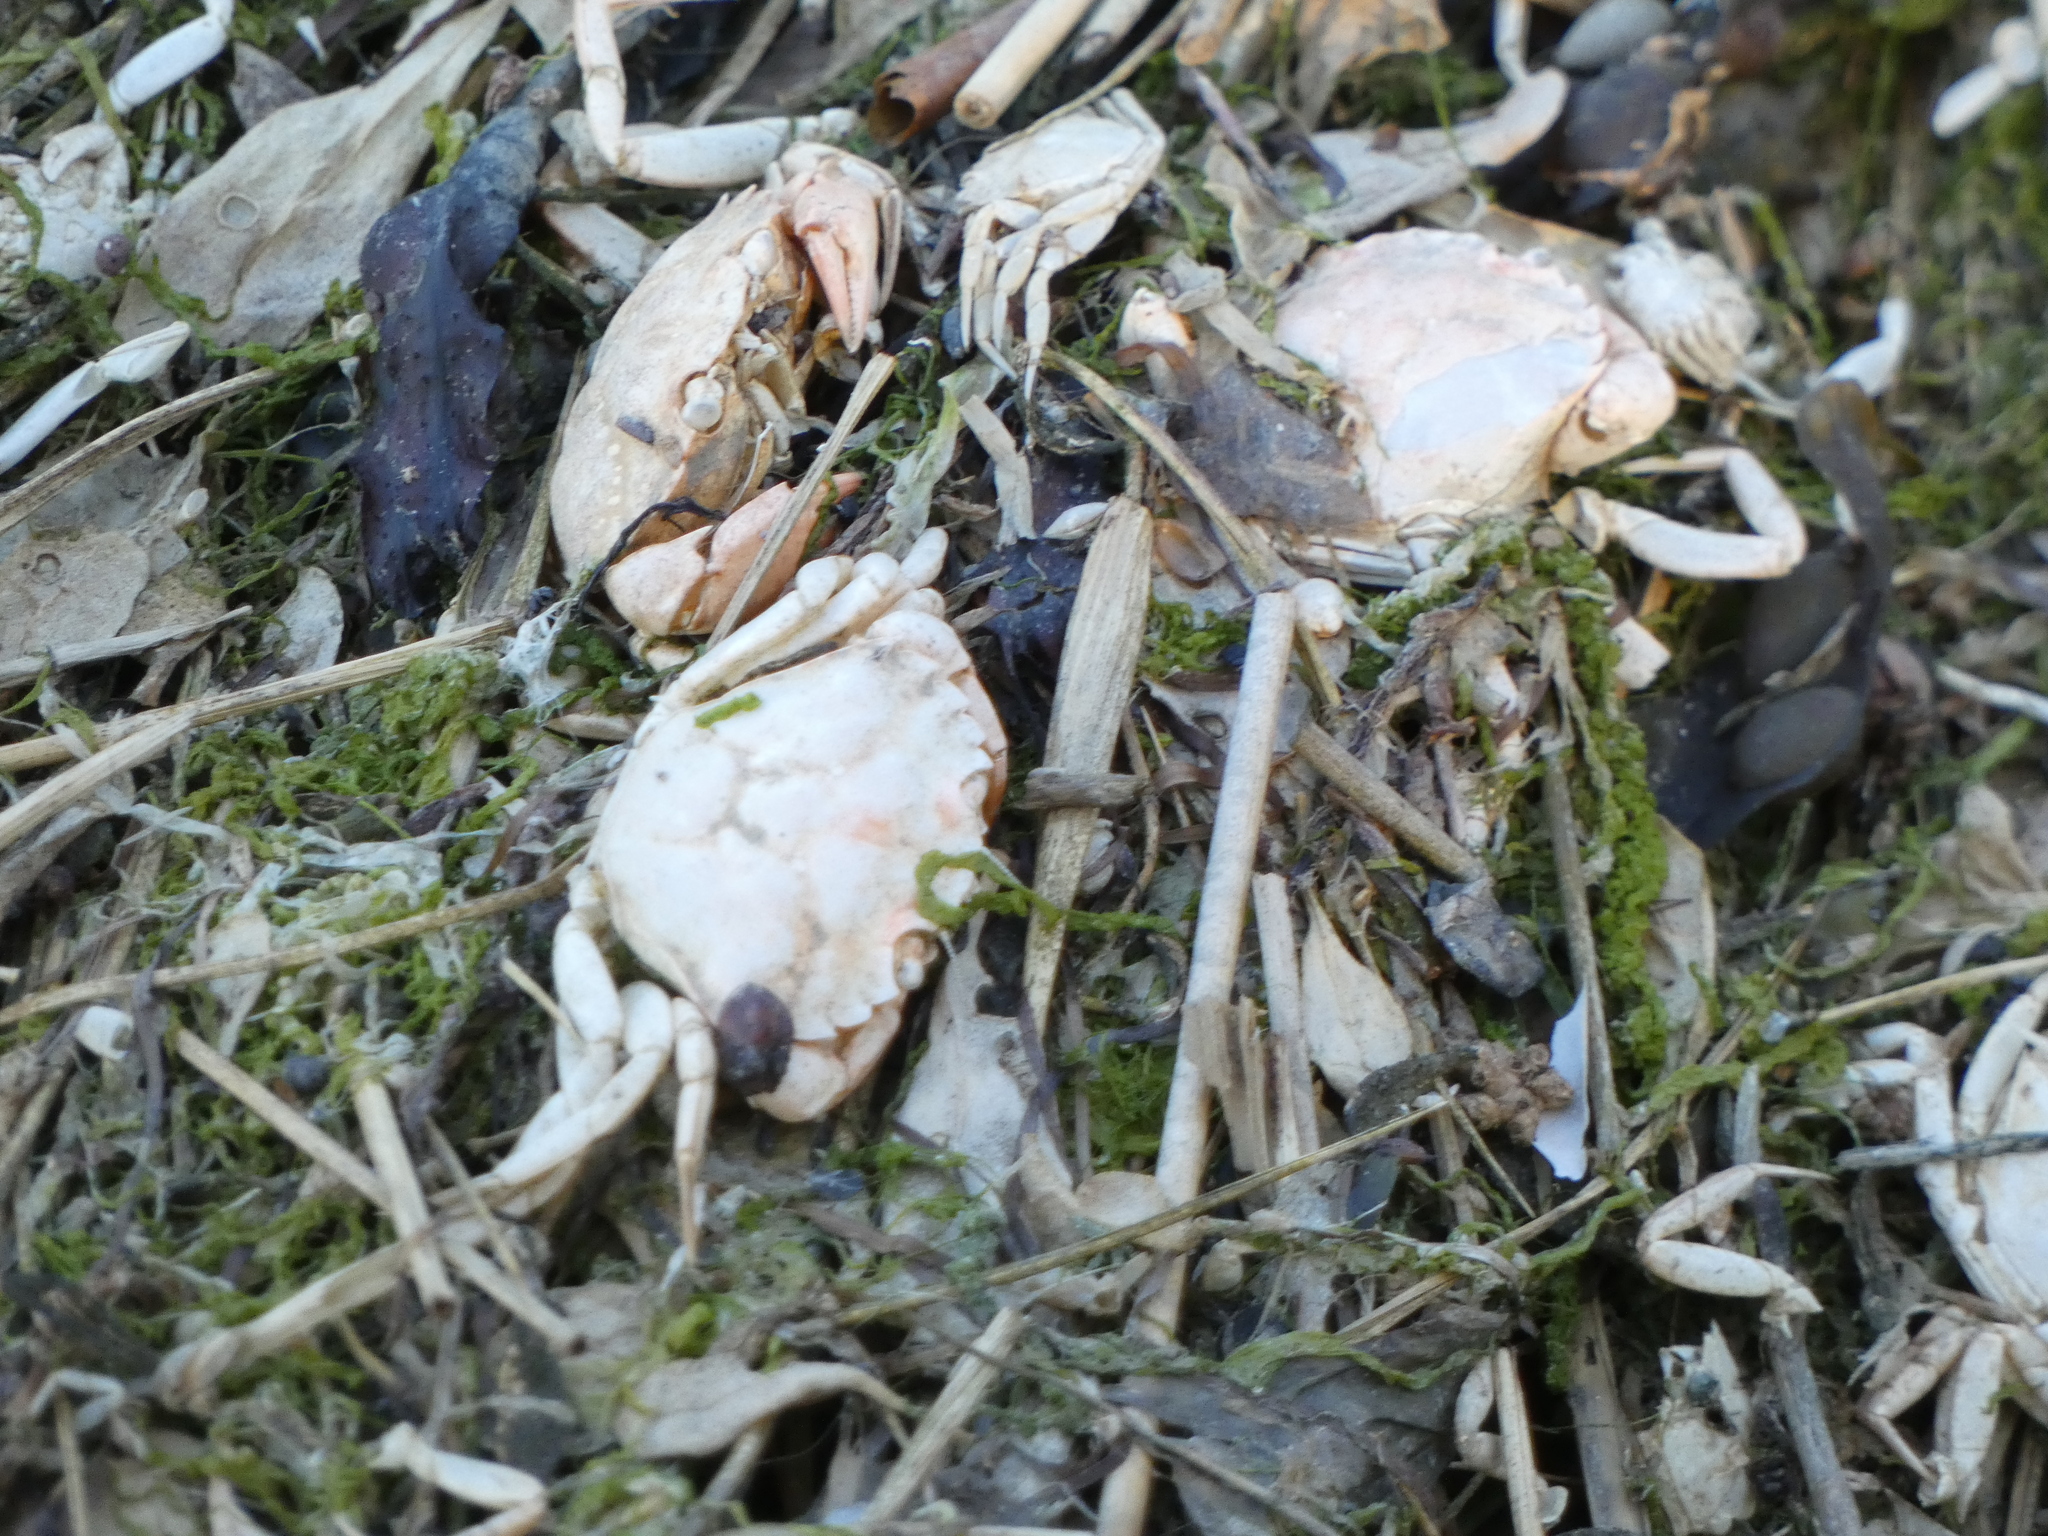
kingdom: Animalia
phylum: Arthropoda
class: Malacostraca
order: Decapoda
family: Carcinidae
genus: Carcinus
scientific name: Carcinus maenas
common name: European green crab
